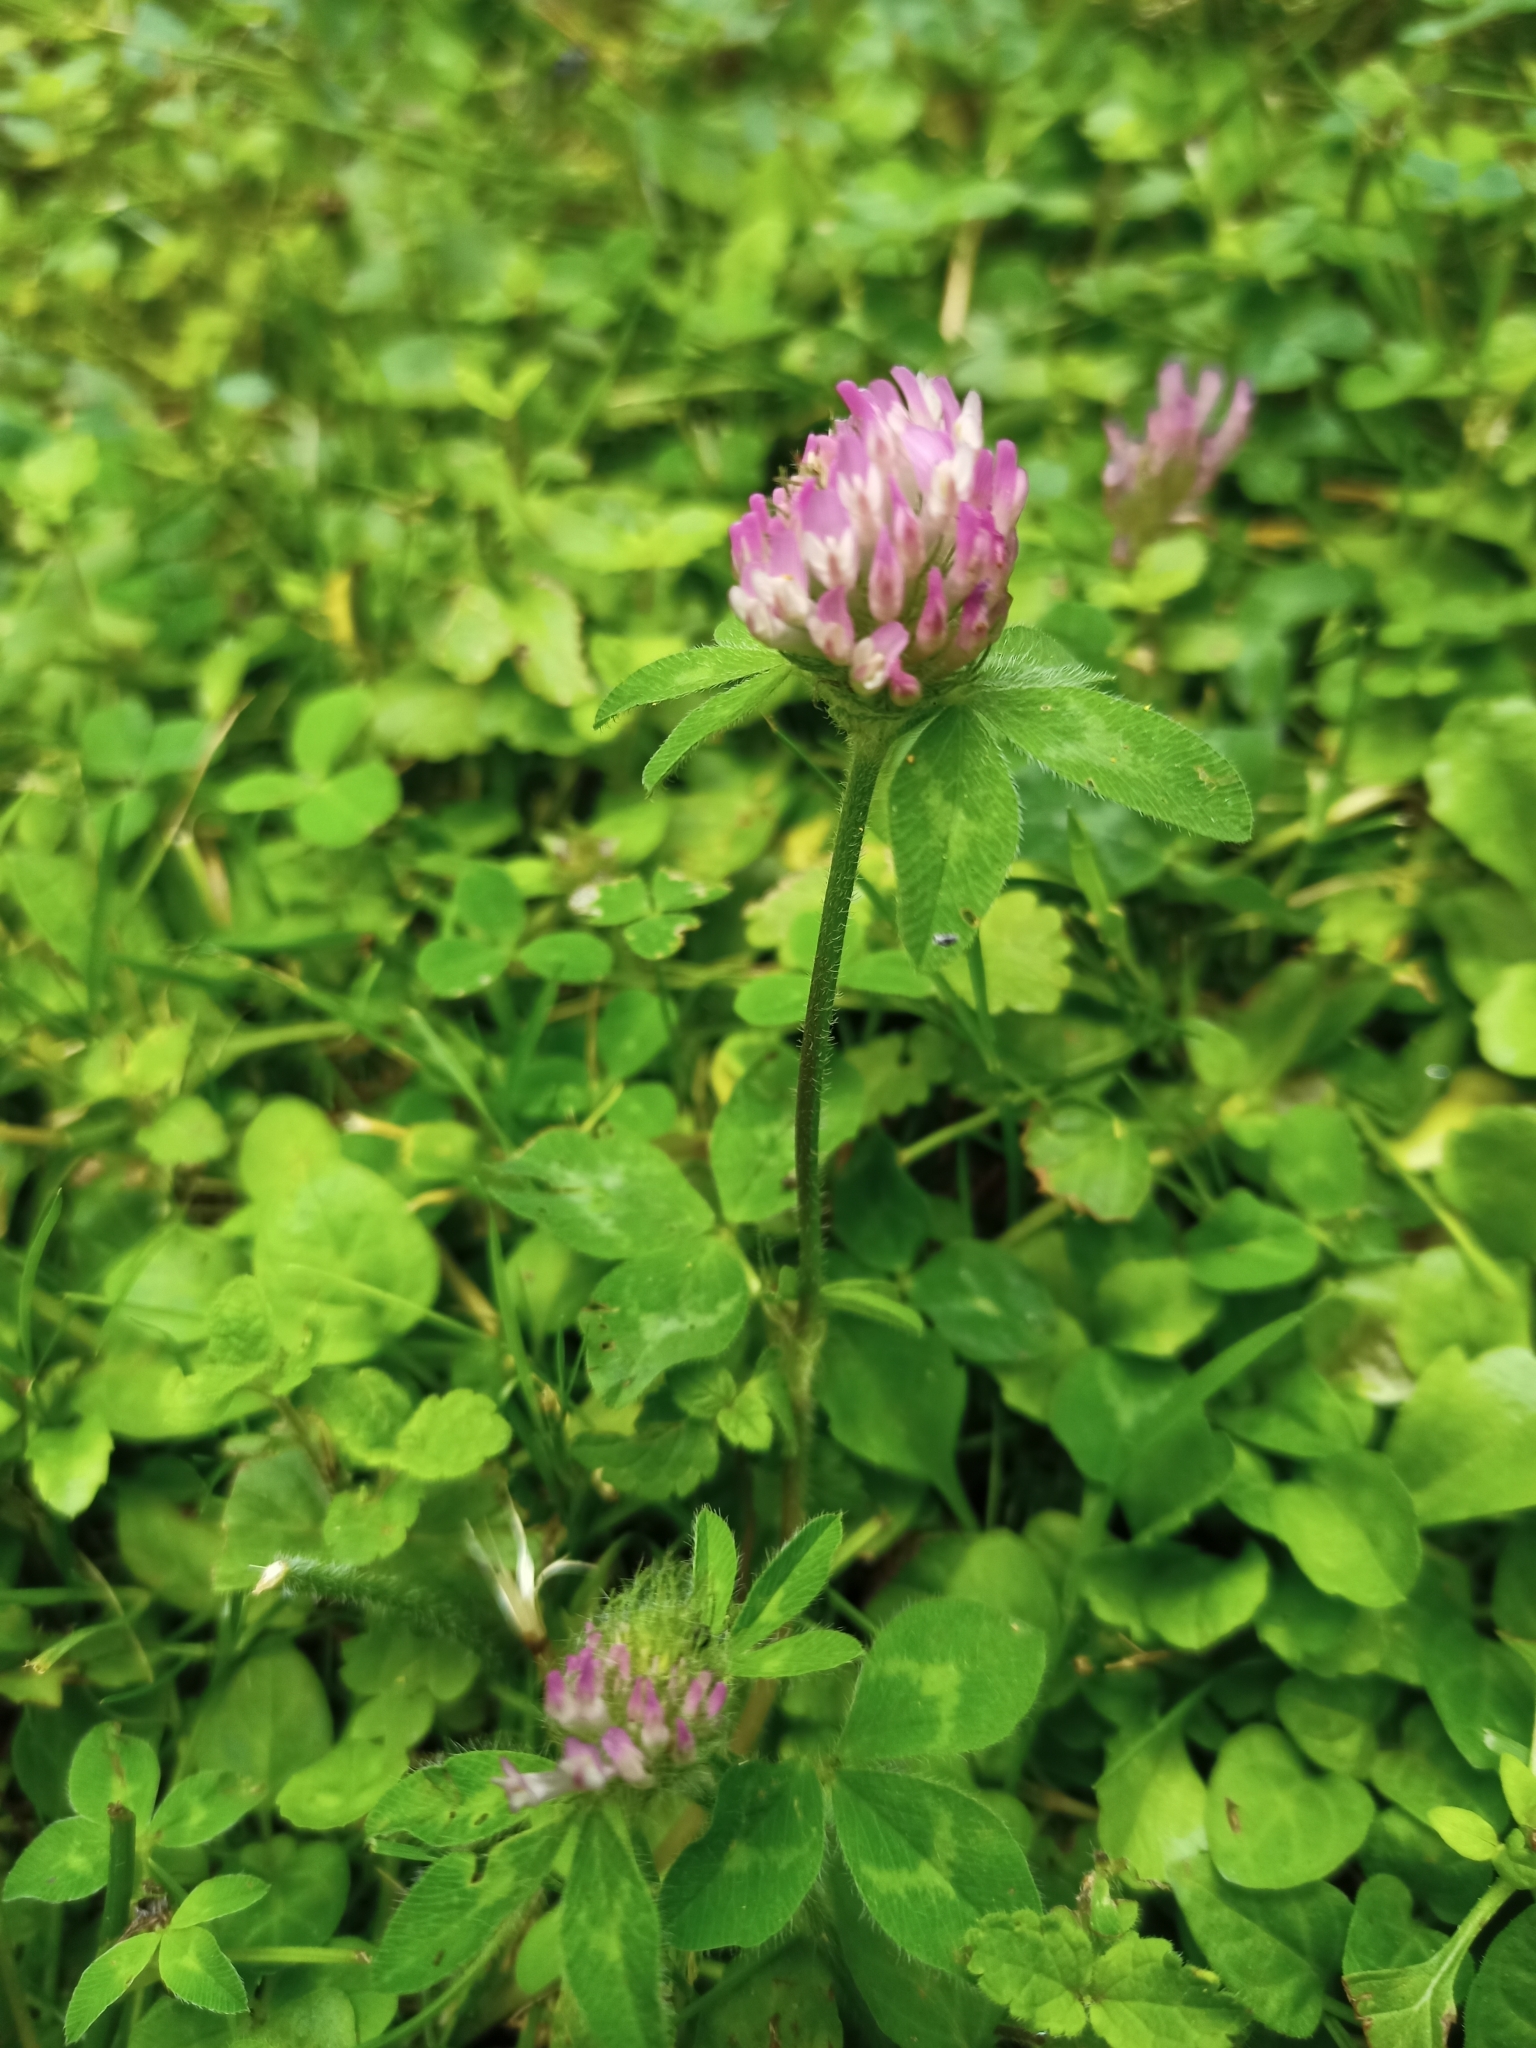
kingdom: Plantae
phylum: Tracheophyta
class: Magnoliopsida
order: Fabales
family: Fabaceae
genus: Trifolium
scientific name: Trifolium pratense
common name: Red clover
